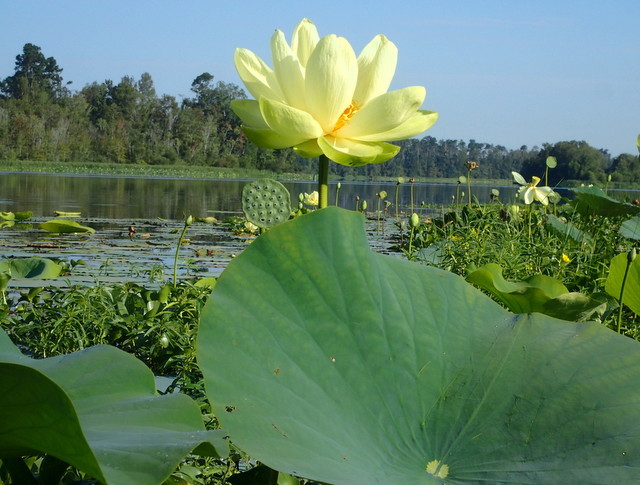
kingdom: Plantae
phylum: Tracheophyta
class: Magnoliopsida
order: Proteales
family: Nelumbonaceae
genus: Nelumbo
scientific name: Nelumbo lutea
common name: American lotus
